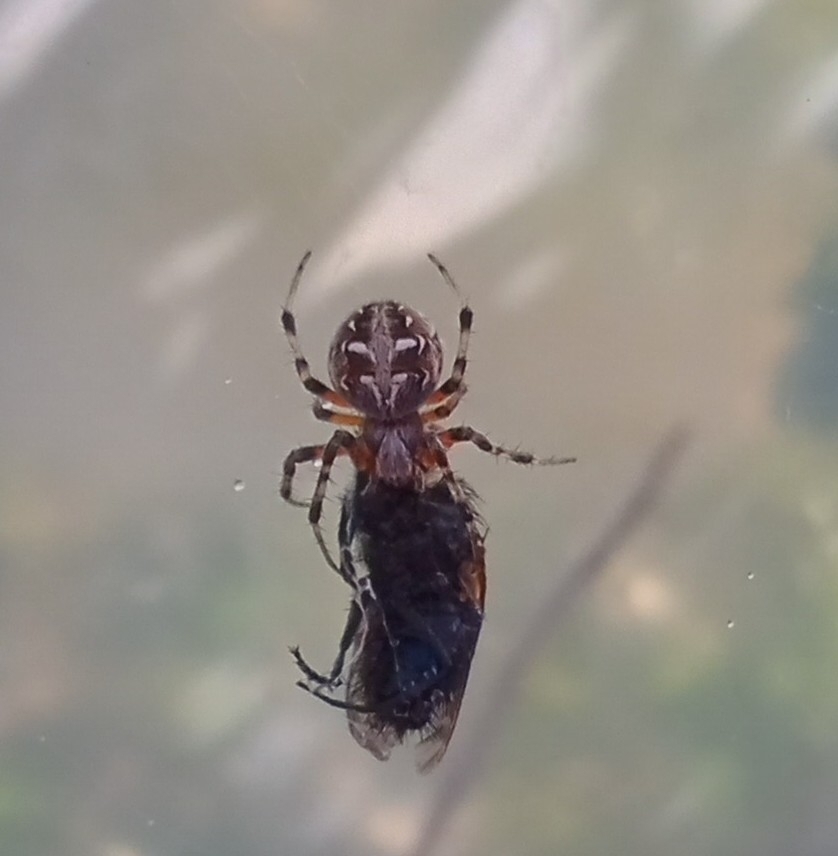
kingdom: Animalia
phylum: Arthropoda
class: Arachnida
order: Araneae
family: Araneidae
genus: Metepeira
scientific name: Metepeira
